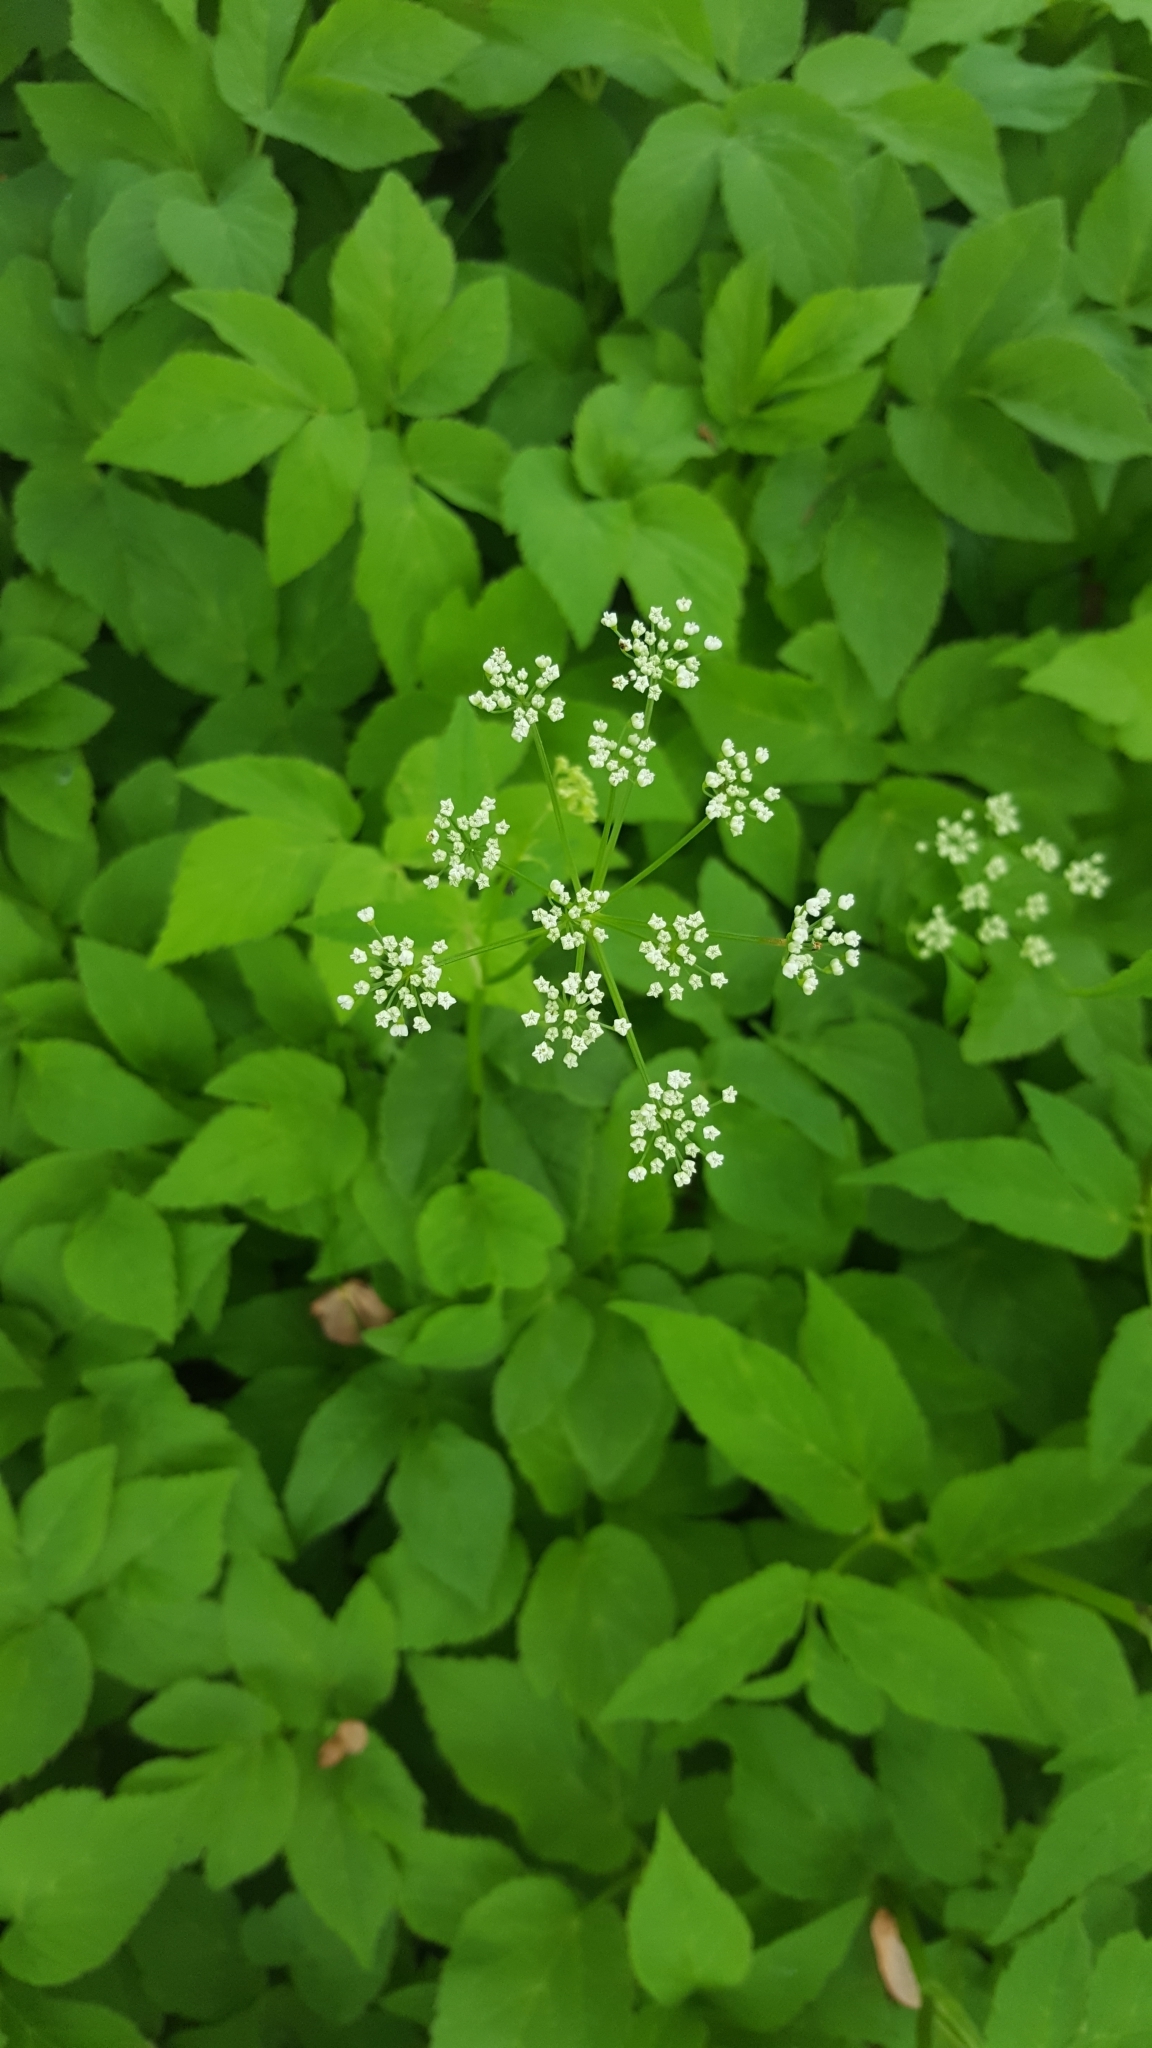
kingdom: Plantae
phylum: Tracheophyta
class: Magnoliopsida
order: Apiales
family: Apiaceae
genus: Aegopodium
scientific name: Aegopodium podagraria
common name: Ground-elder
